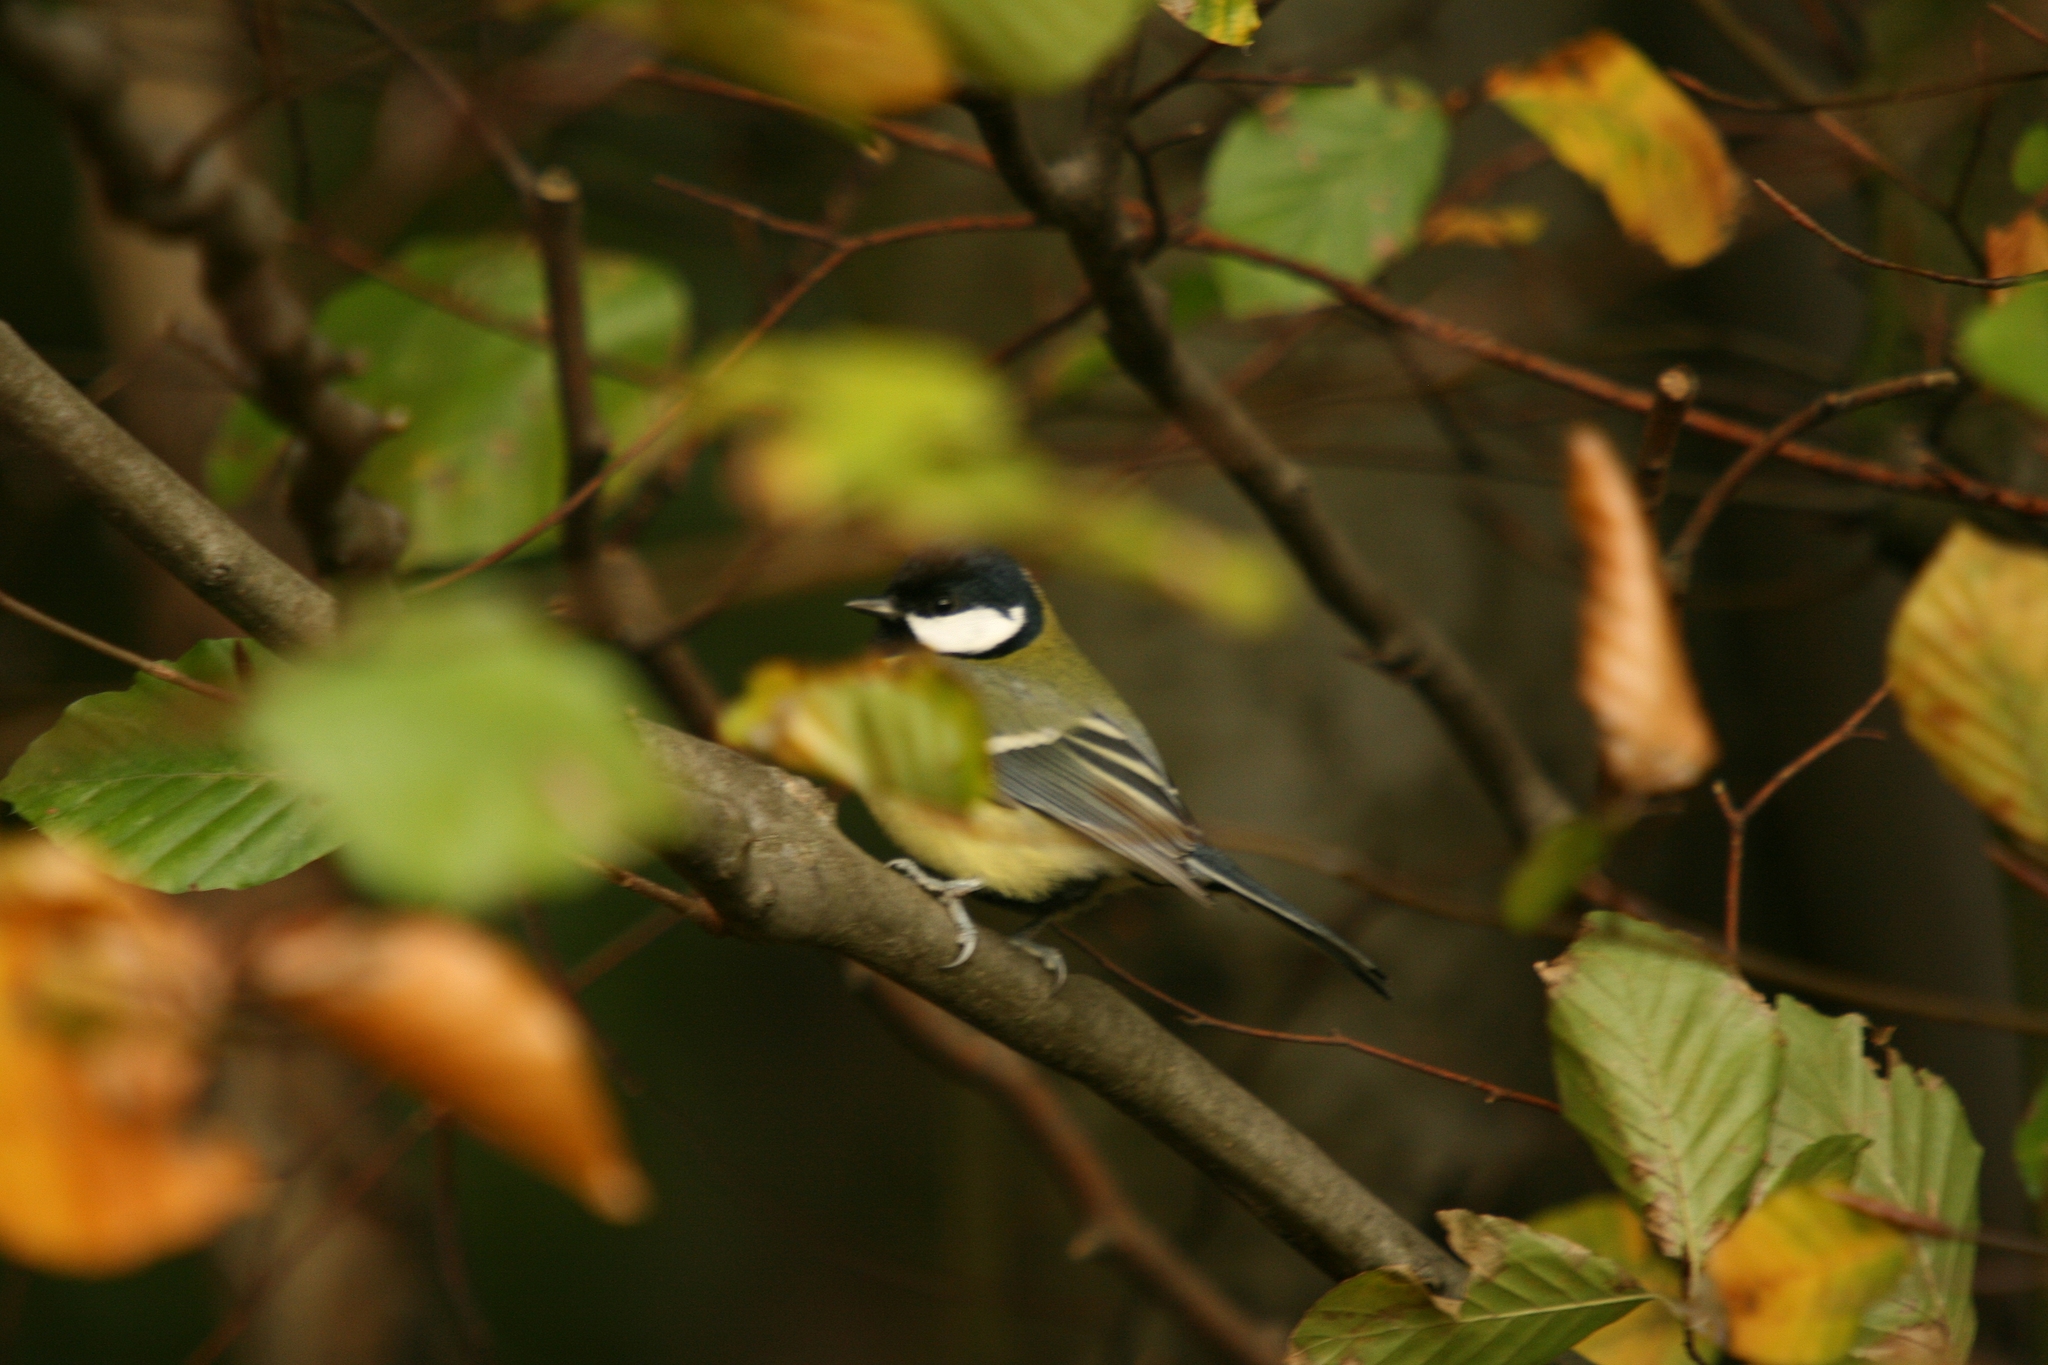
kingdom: Animalia
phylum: Chordata
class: Aves
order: Passeriformes
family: Paridae
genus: Parus
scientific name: Parus major
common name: Great tit
